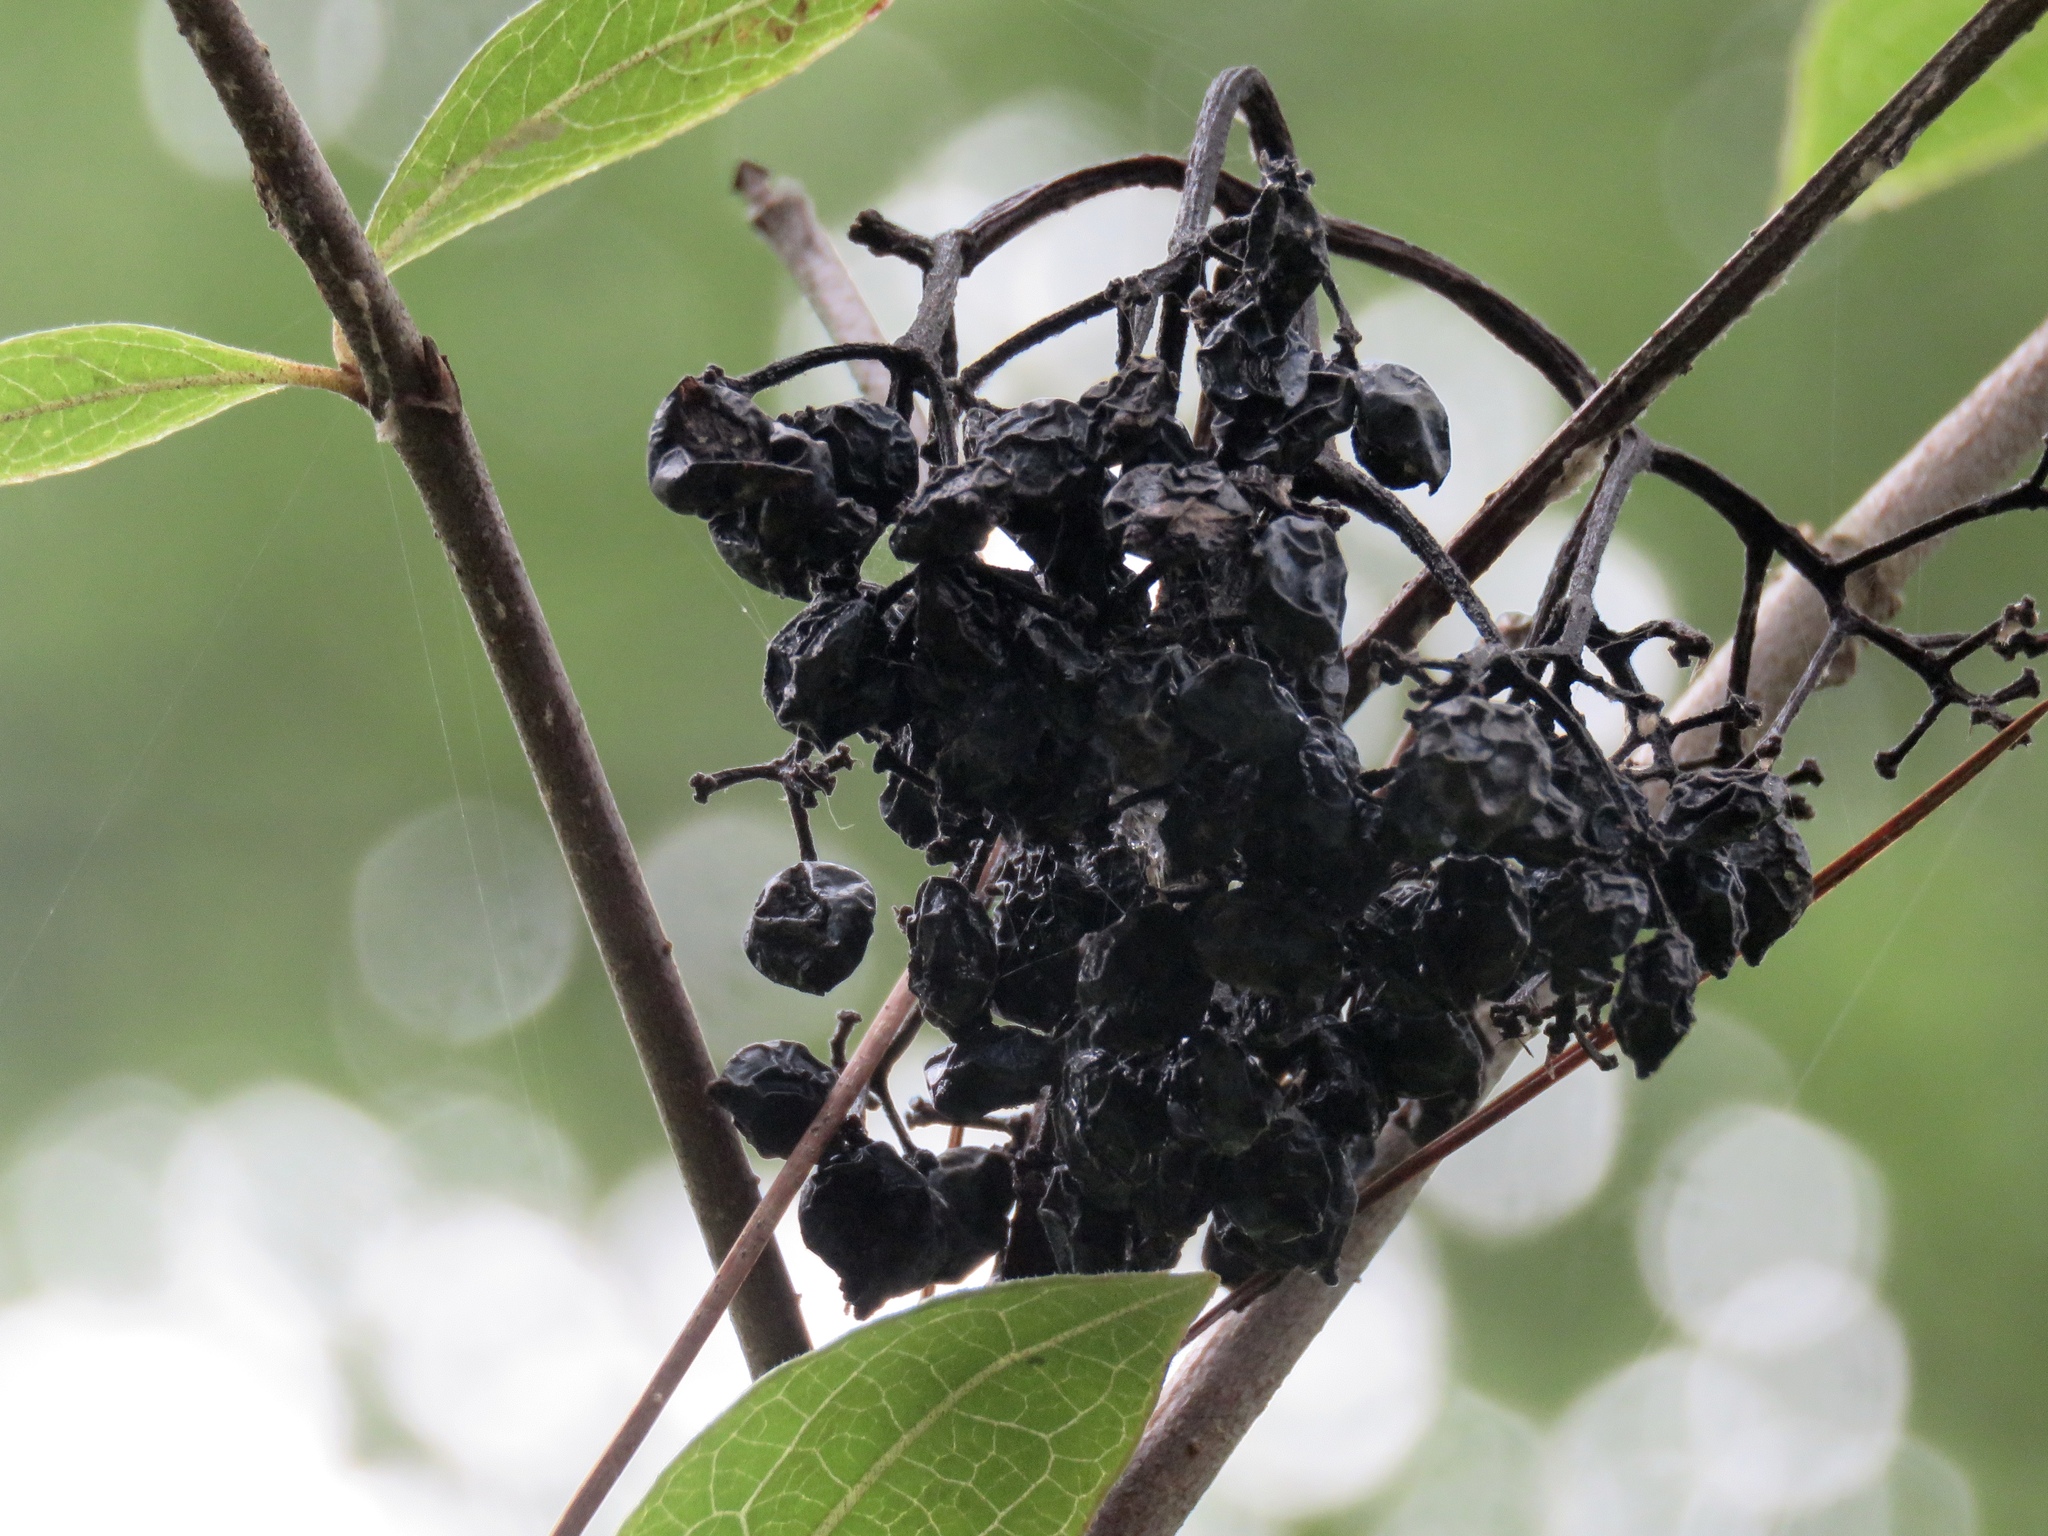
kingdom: Plantae
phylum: Tracheophyta
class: Magnoliopsida
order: Dipsacales
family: Viburnaceae
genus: Viburnum
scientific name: Viburnum nudum
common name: Possum haw
